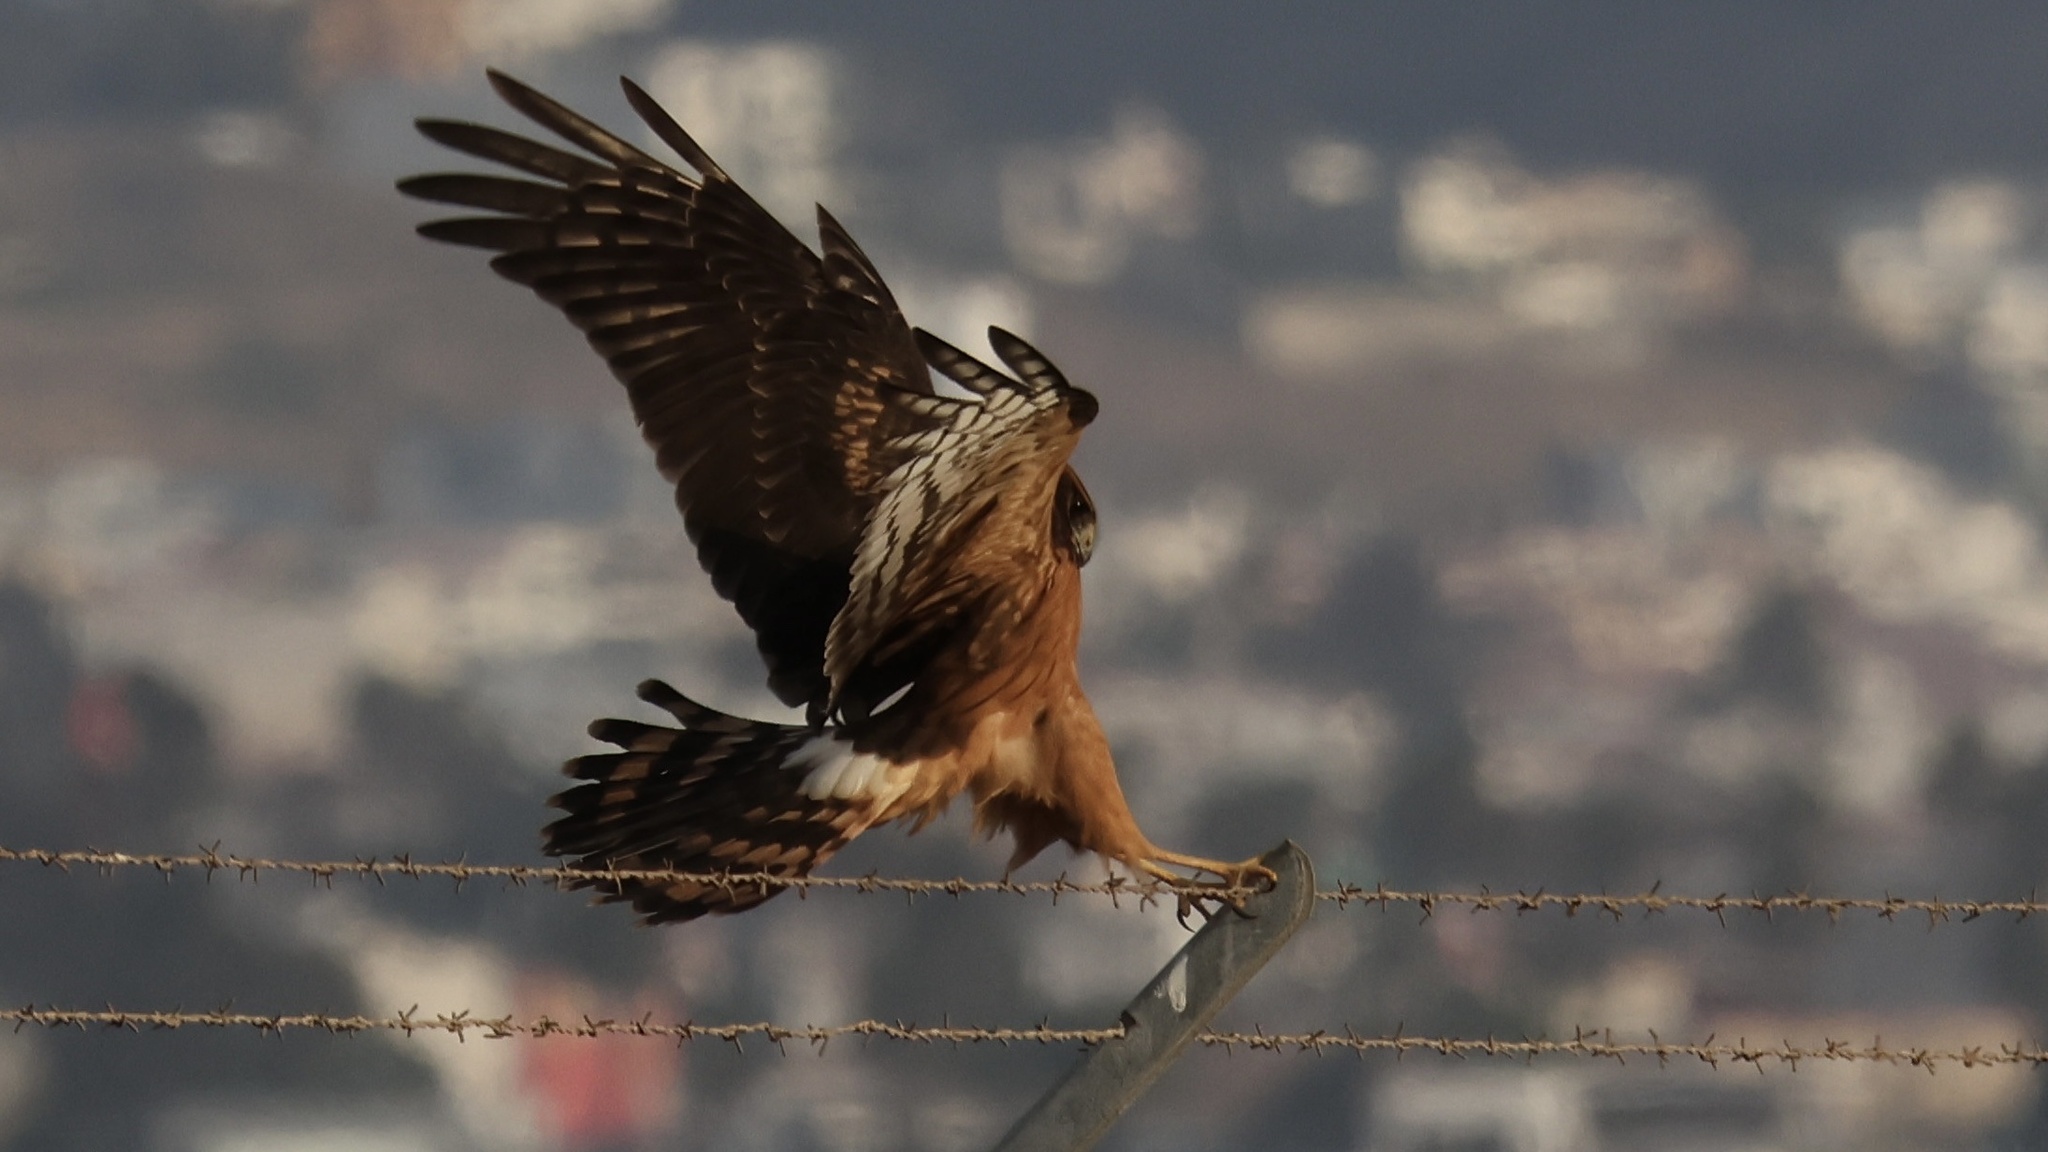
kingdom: Animalia
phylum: Chordata
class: Aves
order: Accipitriformes
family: Accipitridae
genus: Circus
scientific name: Circus cyaneus
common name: Hen harrier
